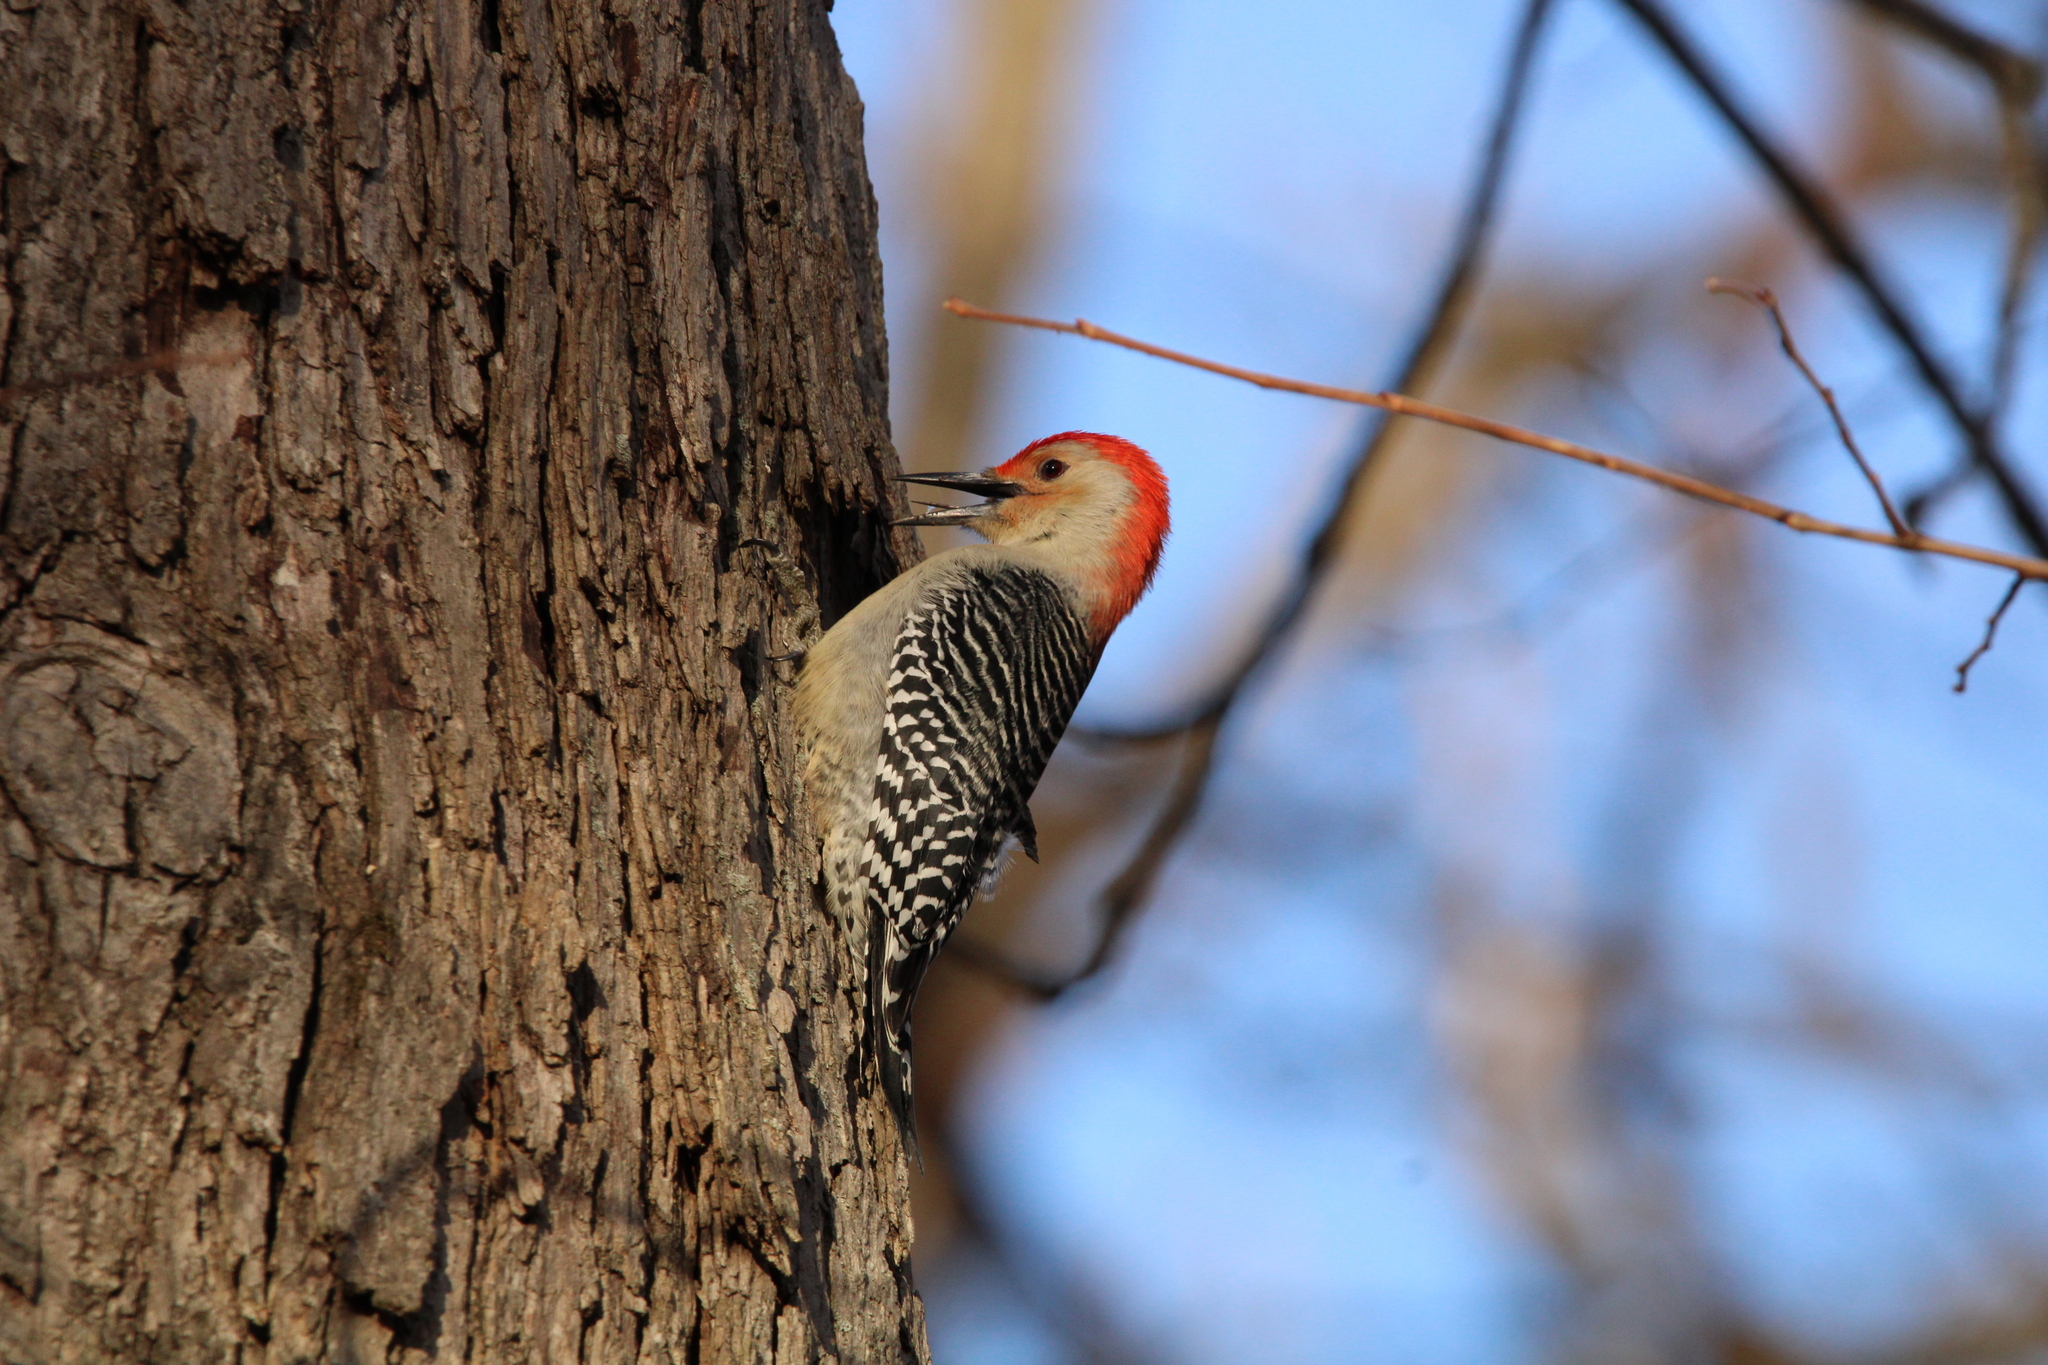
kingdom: Animalia
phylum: Chordata
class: Aves
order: Piciformes
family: Picidae
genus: Melanerpes
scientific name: Melanerpes carolinus
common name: Red-bellied woodpecker
